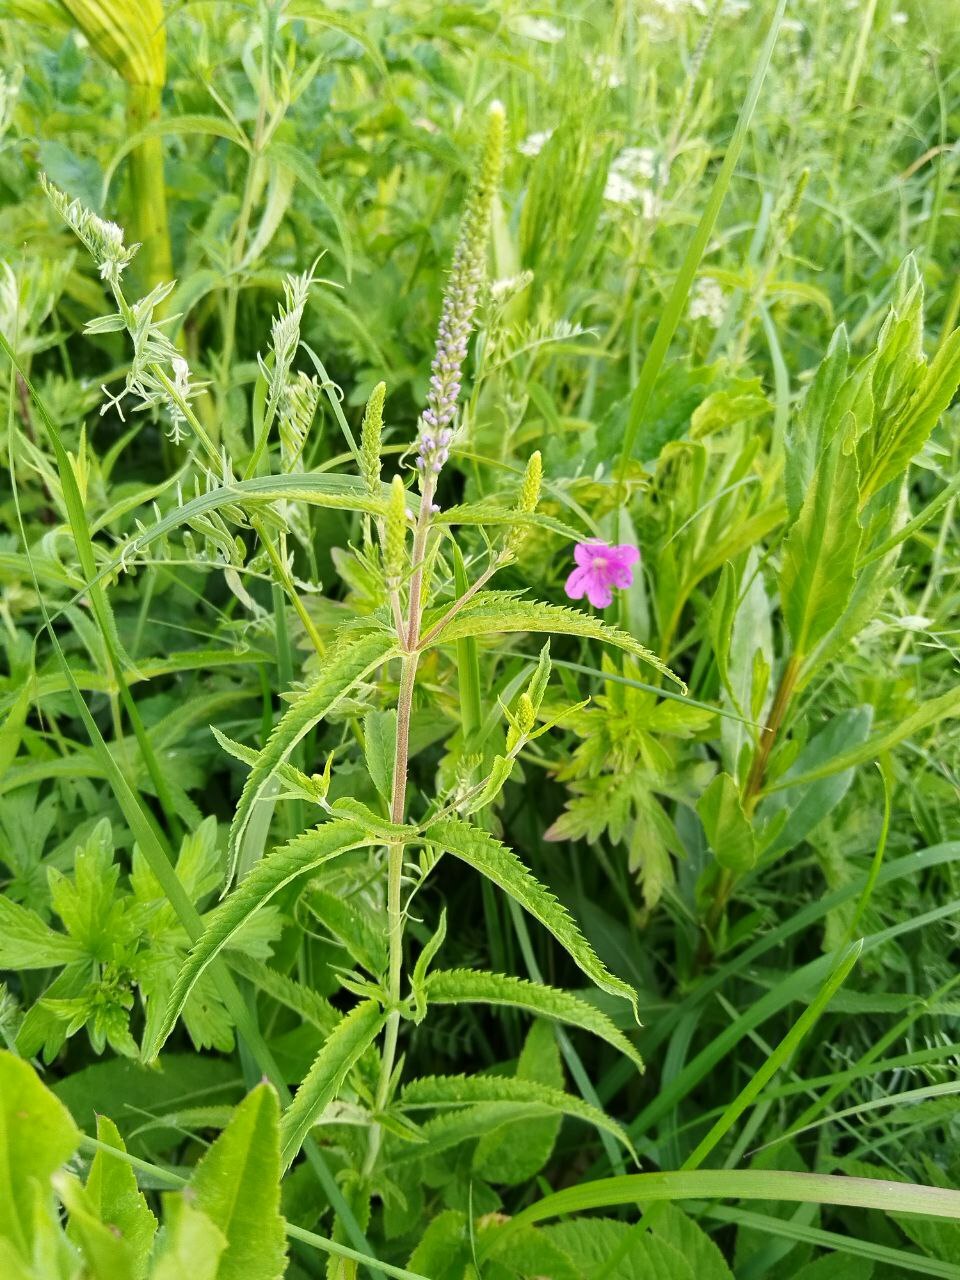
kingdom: Plantae
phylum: Tracheophyta
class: Magnoliopsida
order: Lamiales
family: Plantaginaceae
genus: Veronica
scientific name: Veronica longifolia
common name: Garden speedwell
